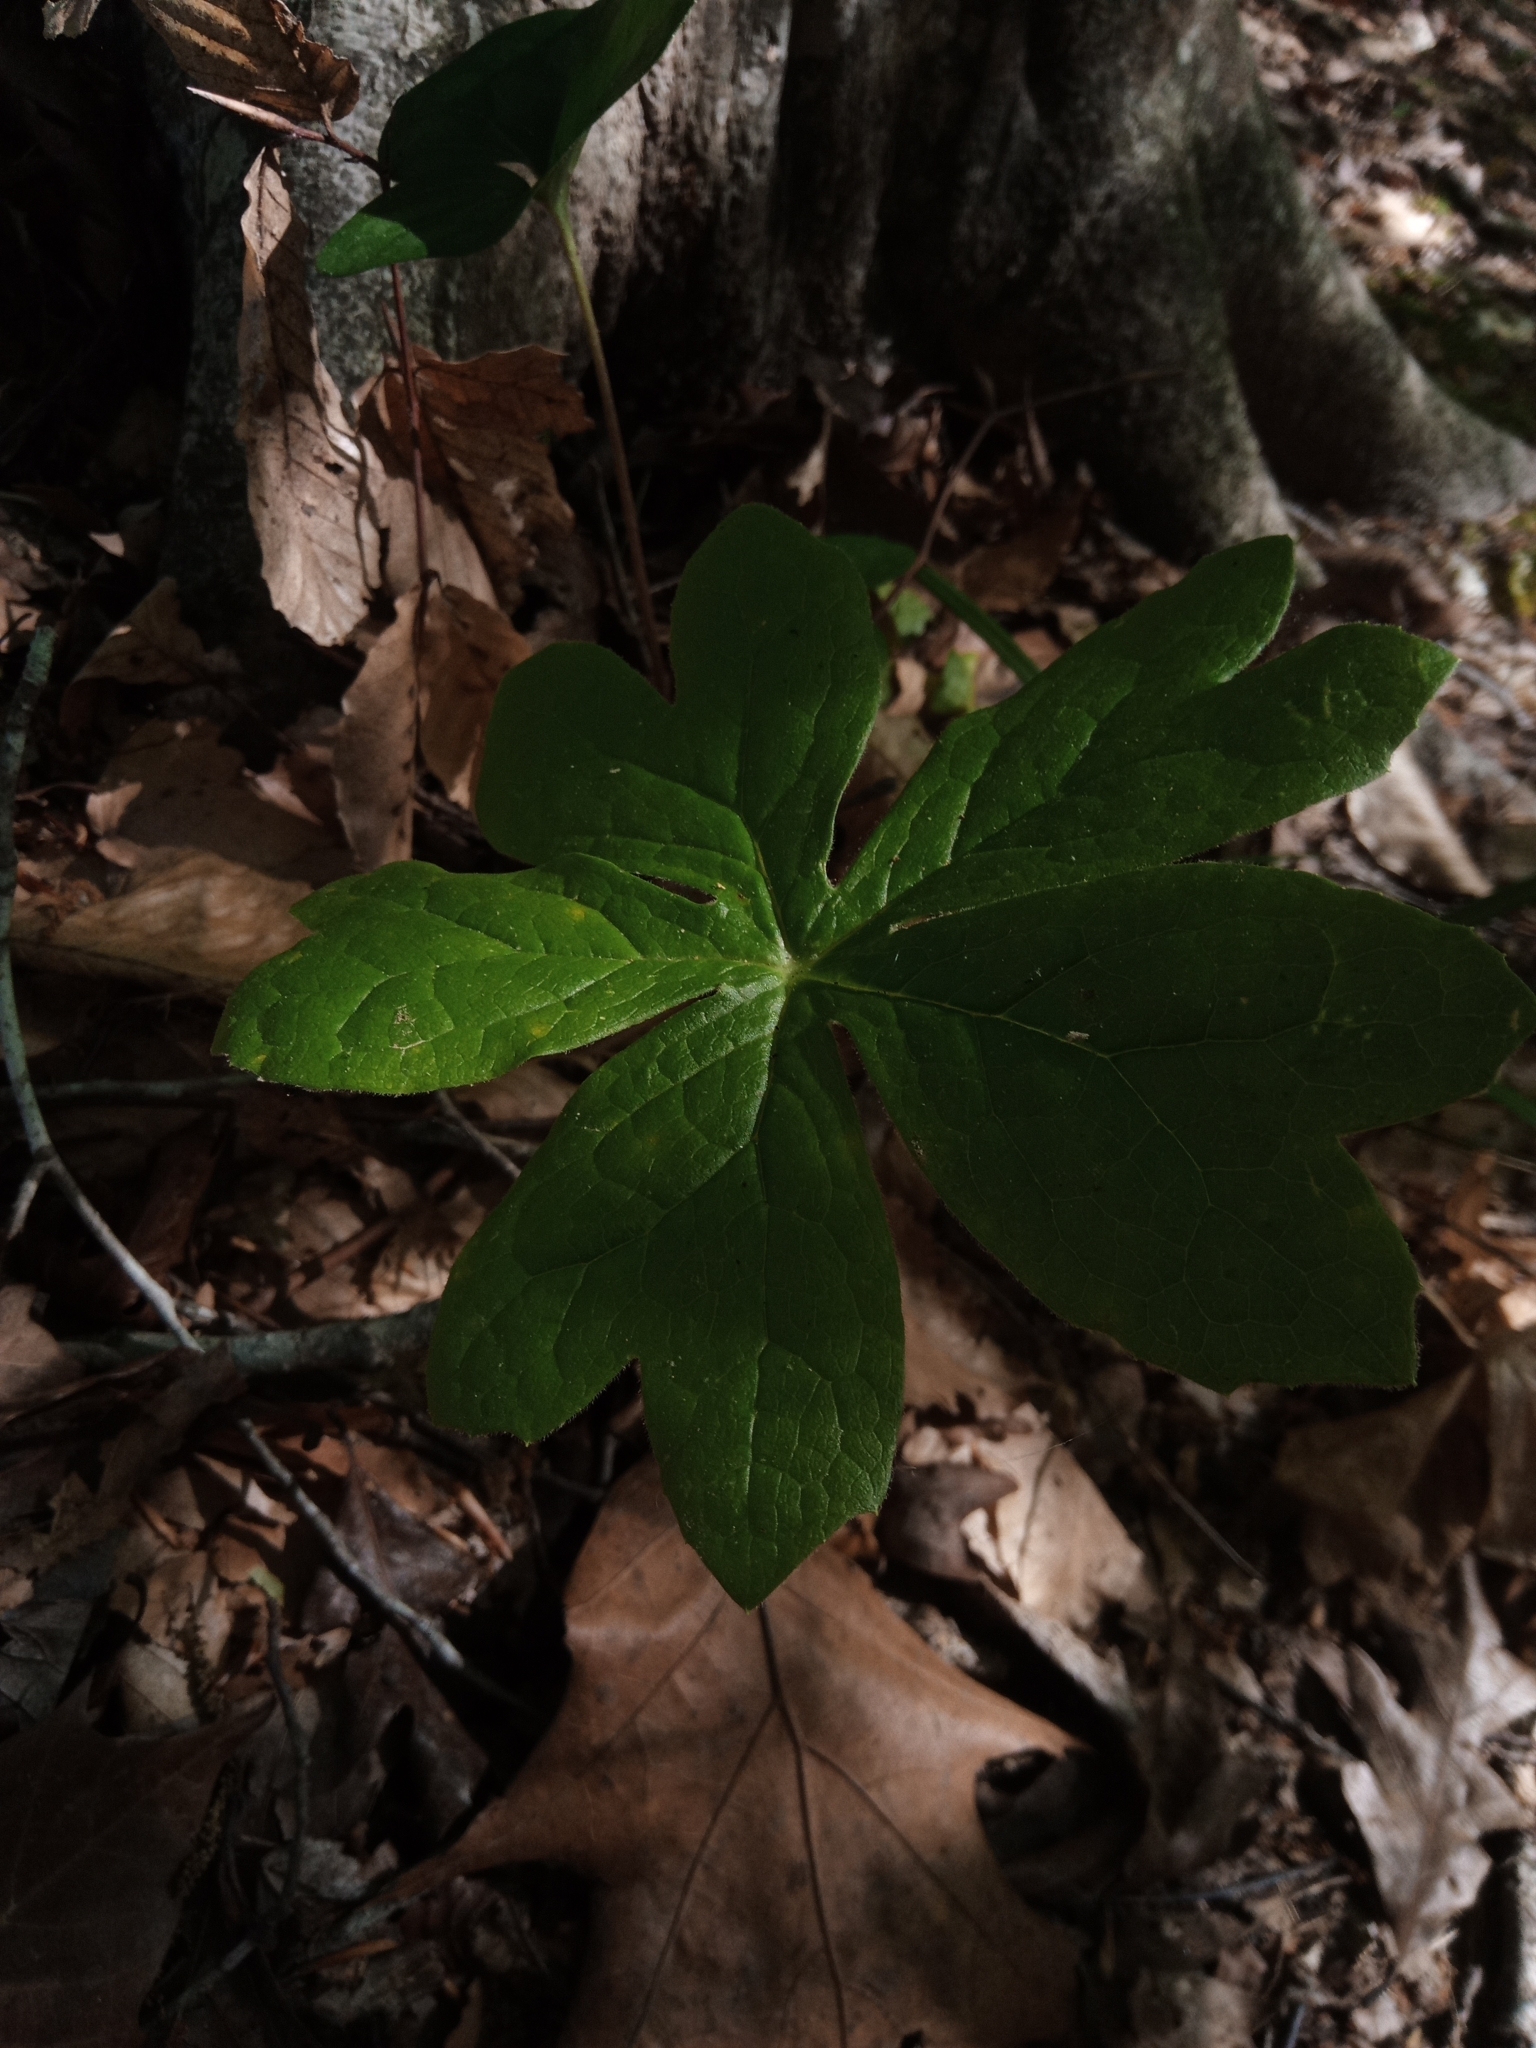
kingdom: Plantae
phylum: Tracheophyta
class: Magnoliopsida
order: Ranunculales
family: Berberidaceae
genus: Podophyllum
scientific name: Podophyllum peltatum
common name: Wild mandrake
